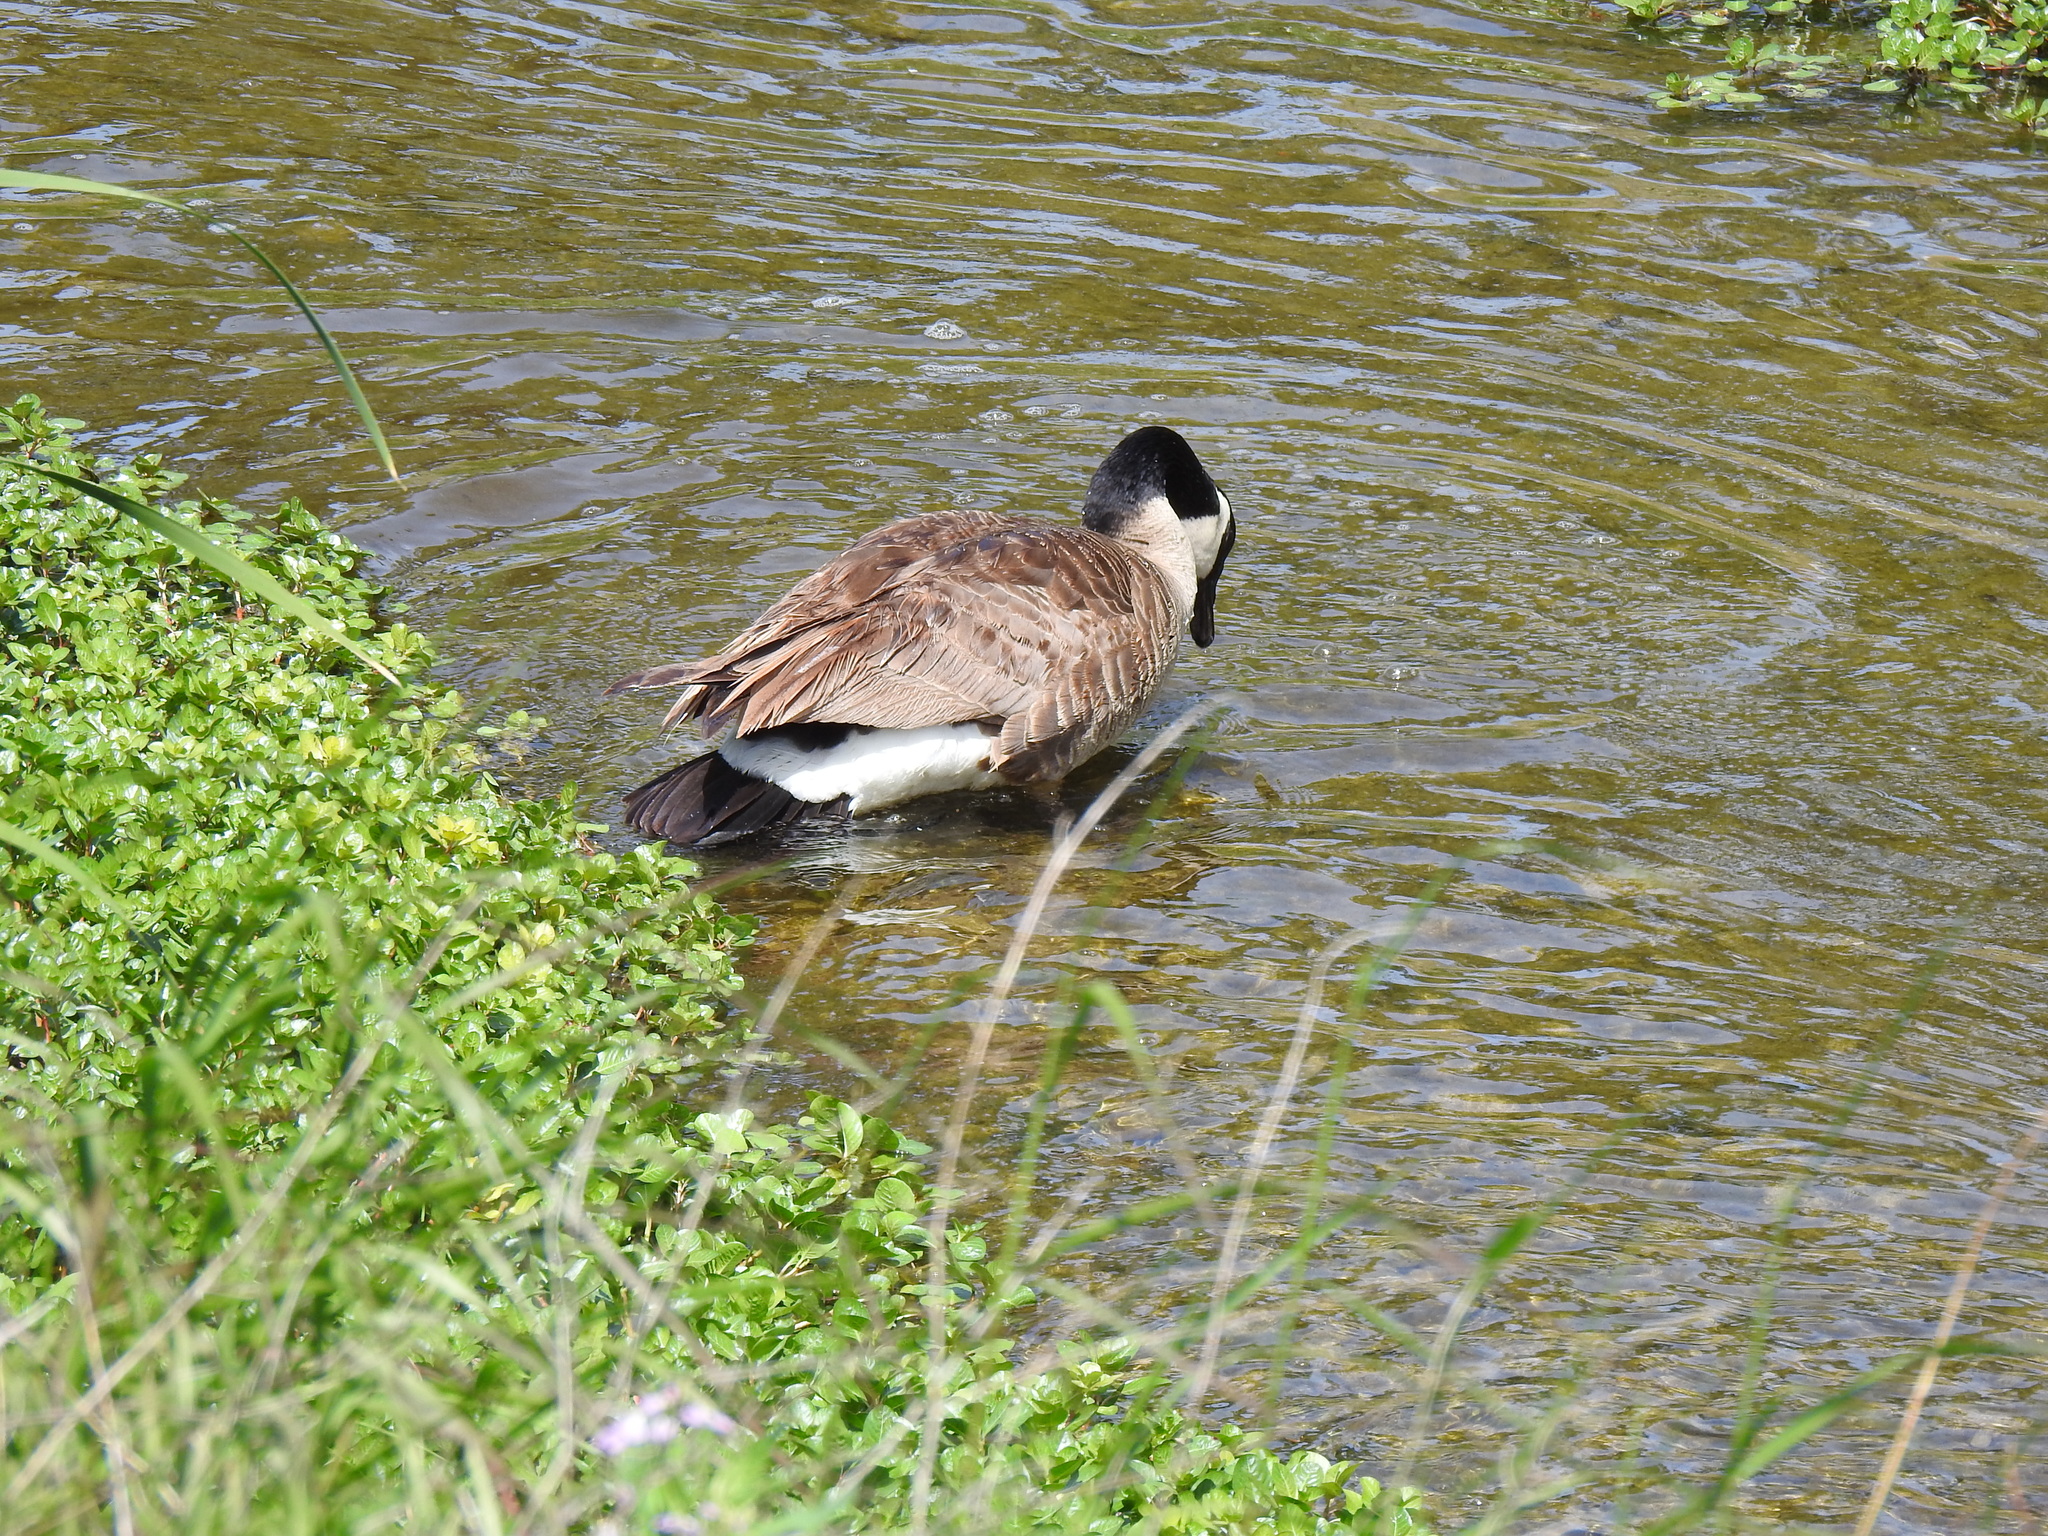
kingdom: Animalia
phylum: Chordata
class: Aves
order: Anseriformes
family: Anatidae
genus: Branta
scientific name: Branta canadensis
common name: Canada goose
